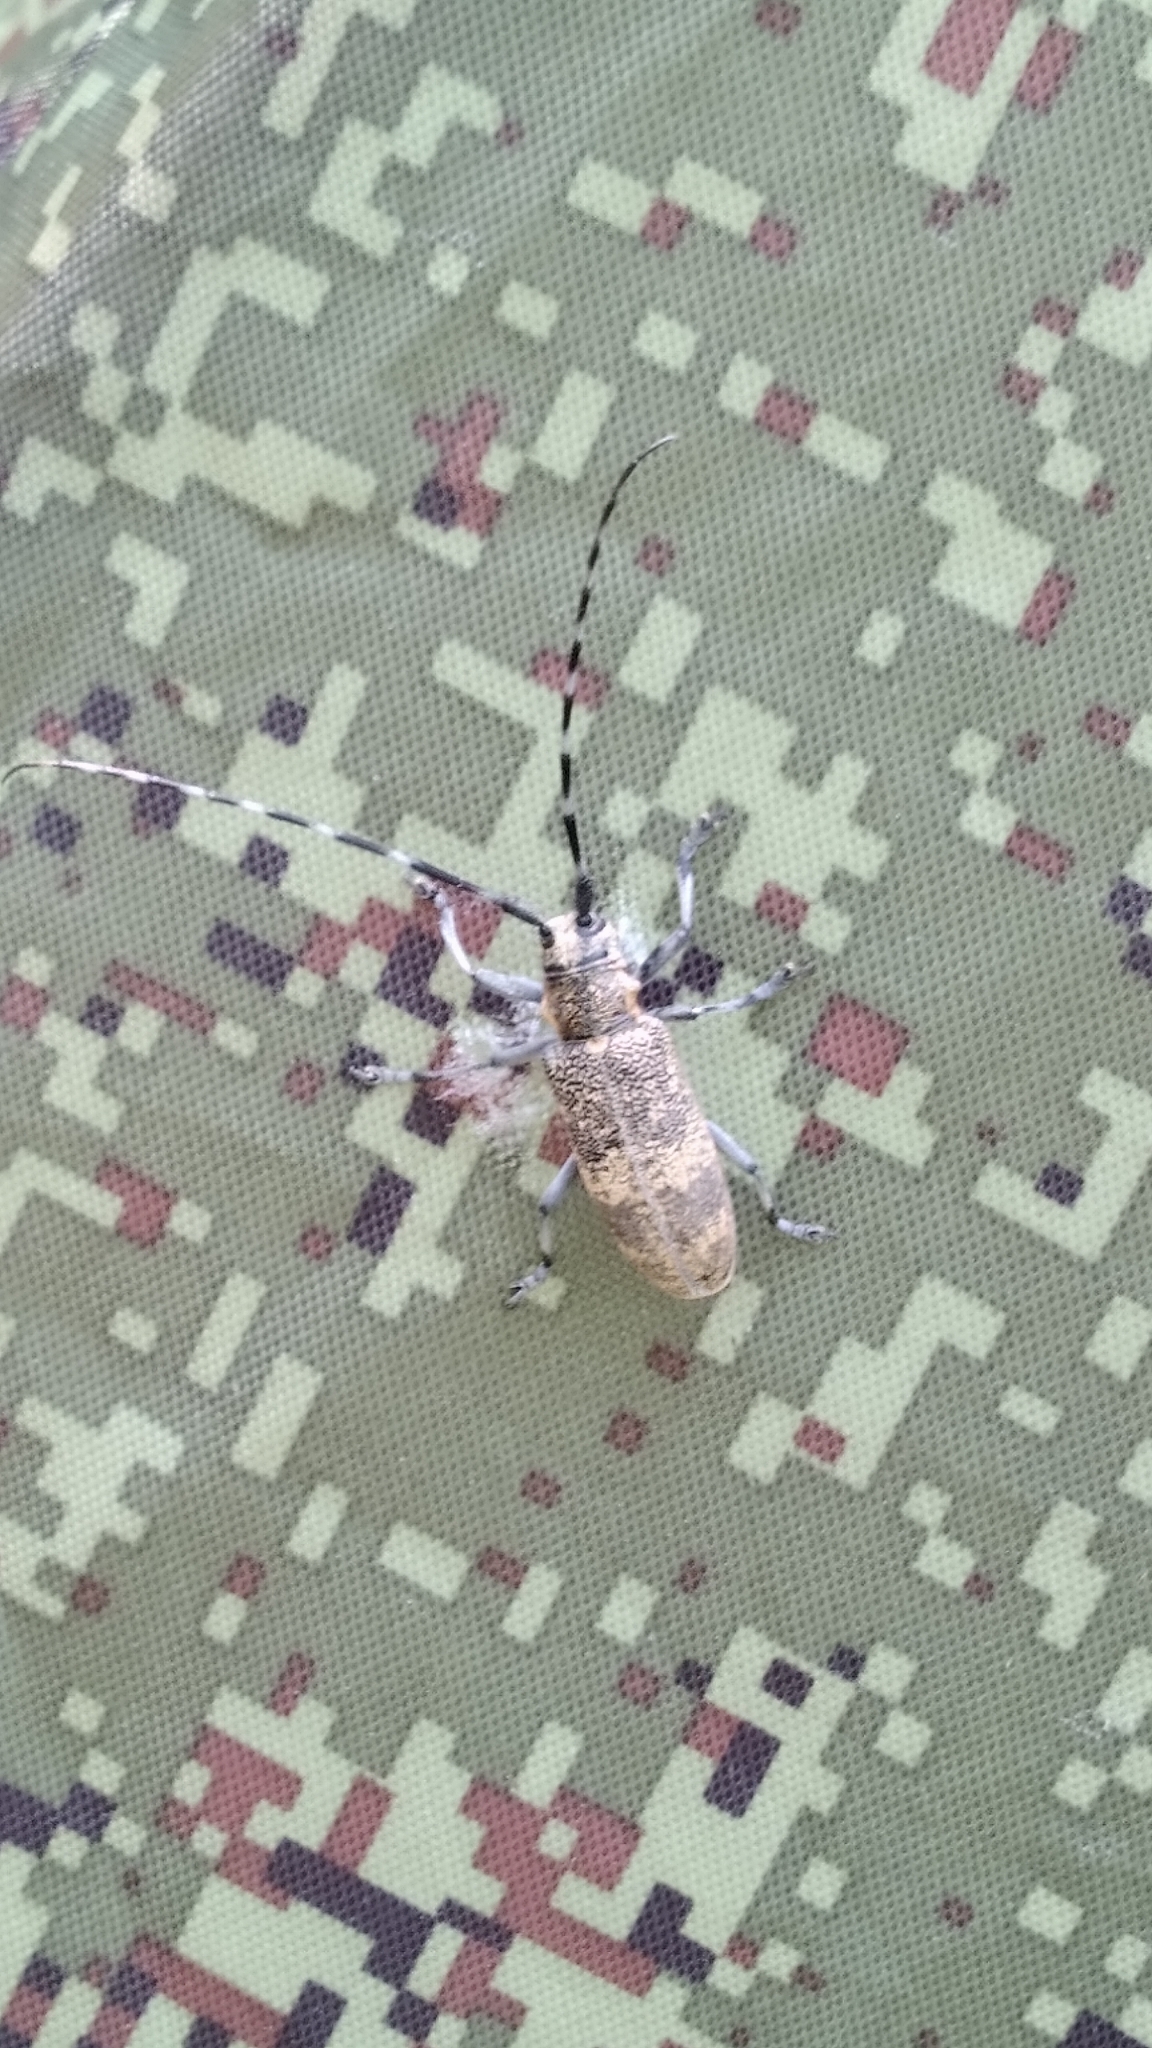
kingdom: Animalia
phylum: Arthropoda
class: Insecta
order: Coleoptera
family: Cerambycidae
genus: Monochamus
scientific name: Monochamus galloprovincialis
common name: Pine sawyer
